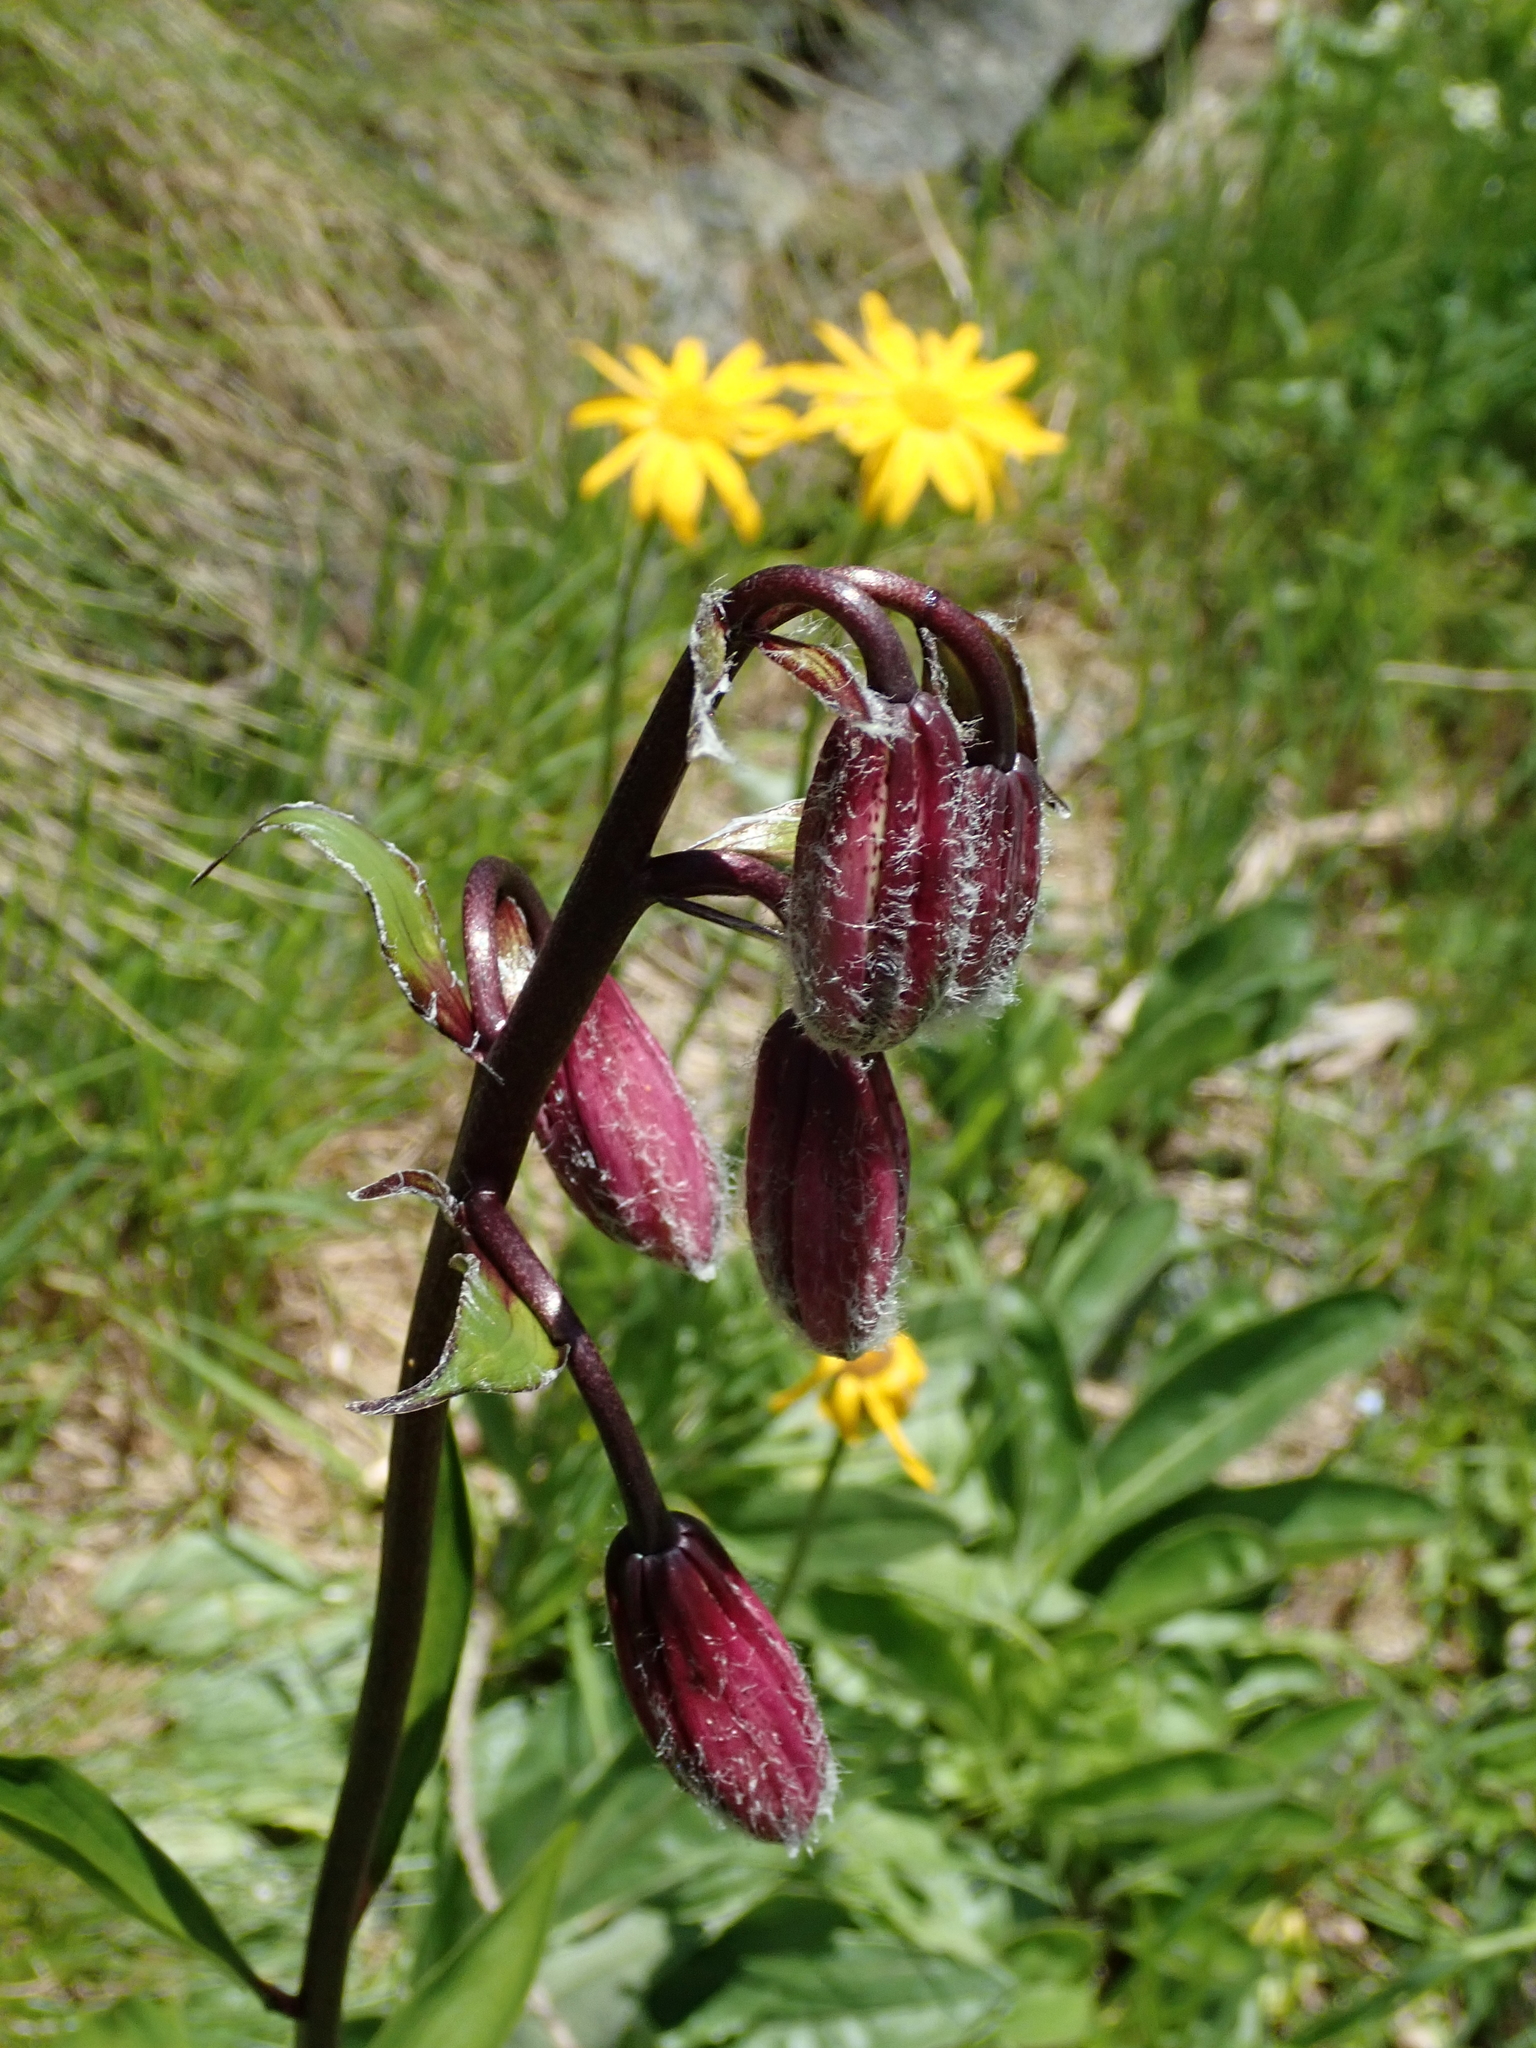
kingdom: Plantae
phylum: Tracheophyta
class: Liliopsida
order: Liliales
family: Liliaceae
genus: Lilium
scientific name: Lilium martagon
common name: Martagon lily
